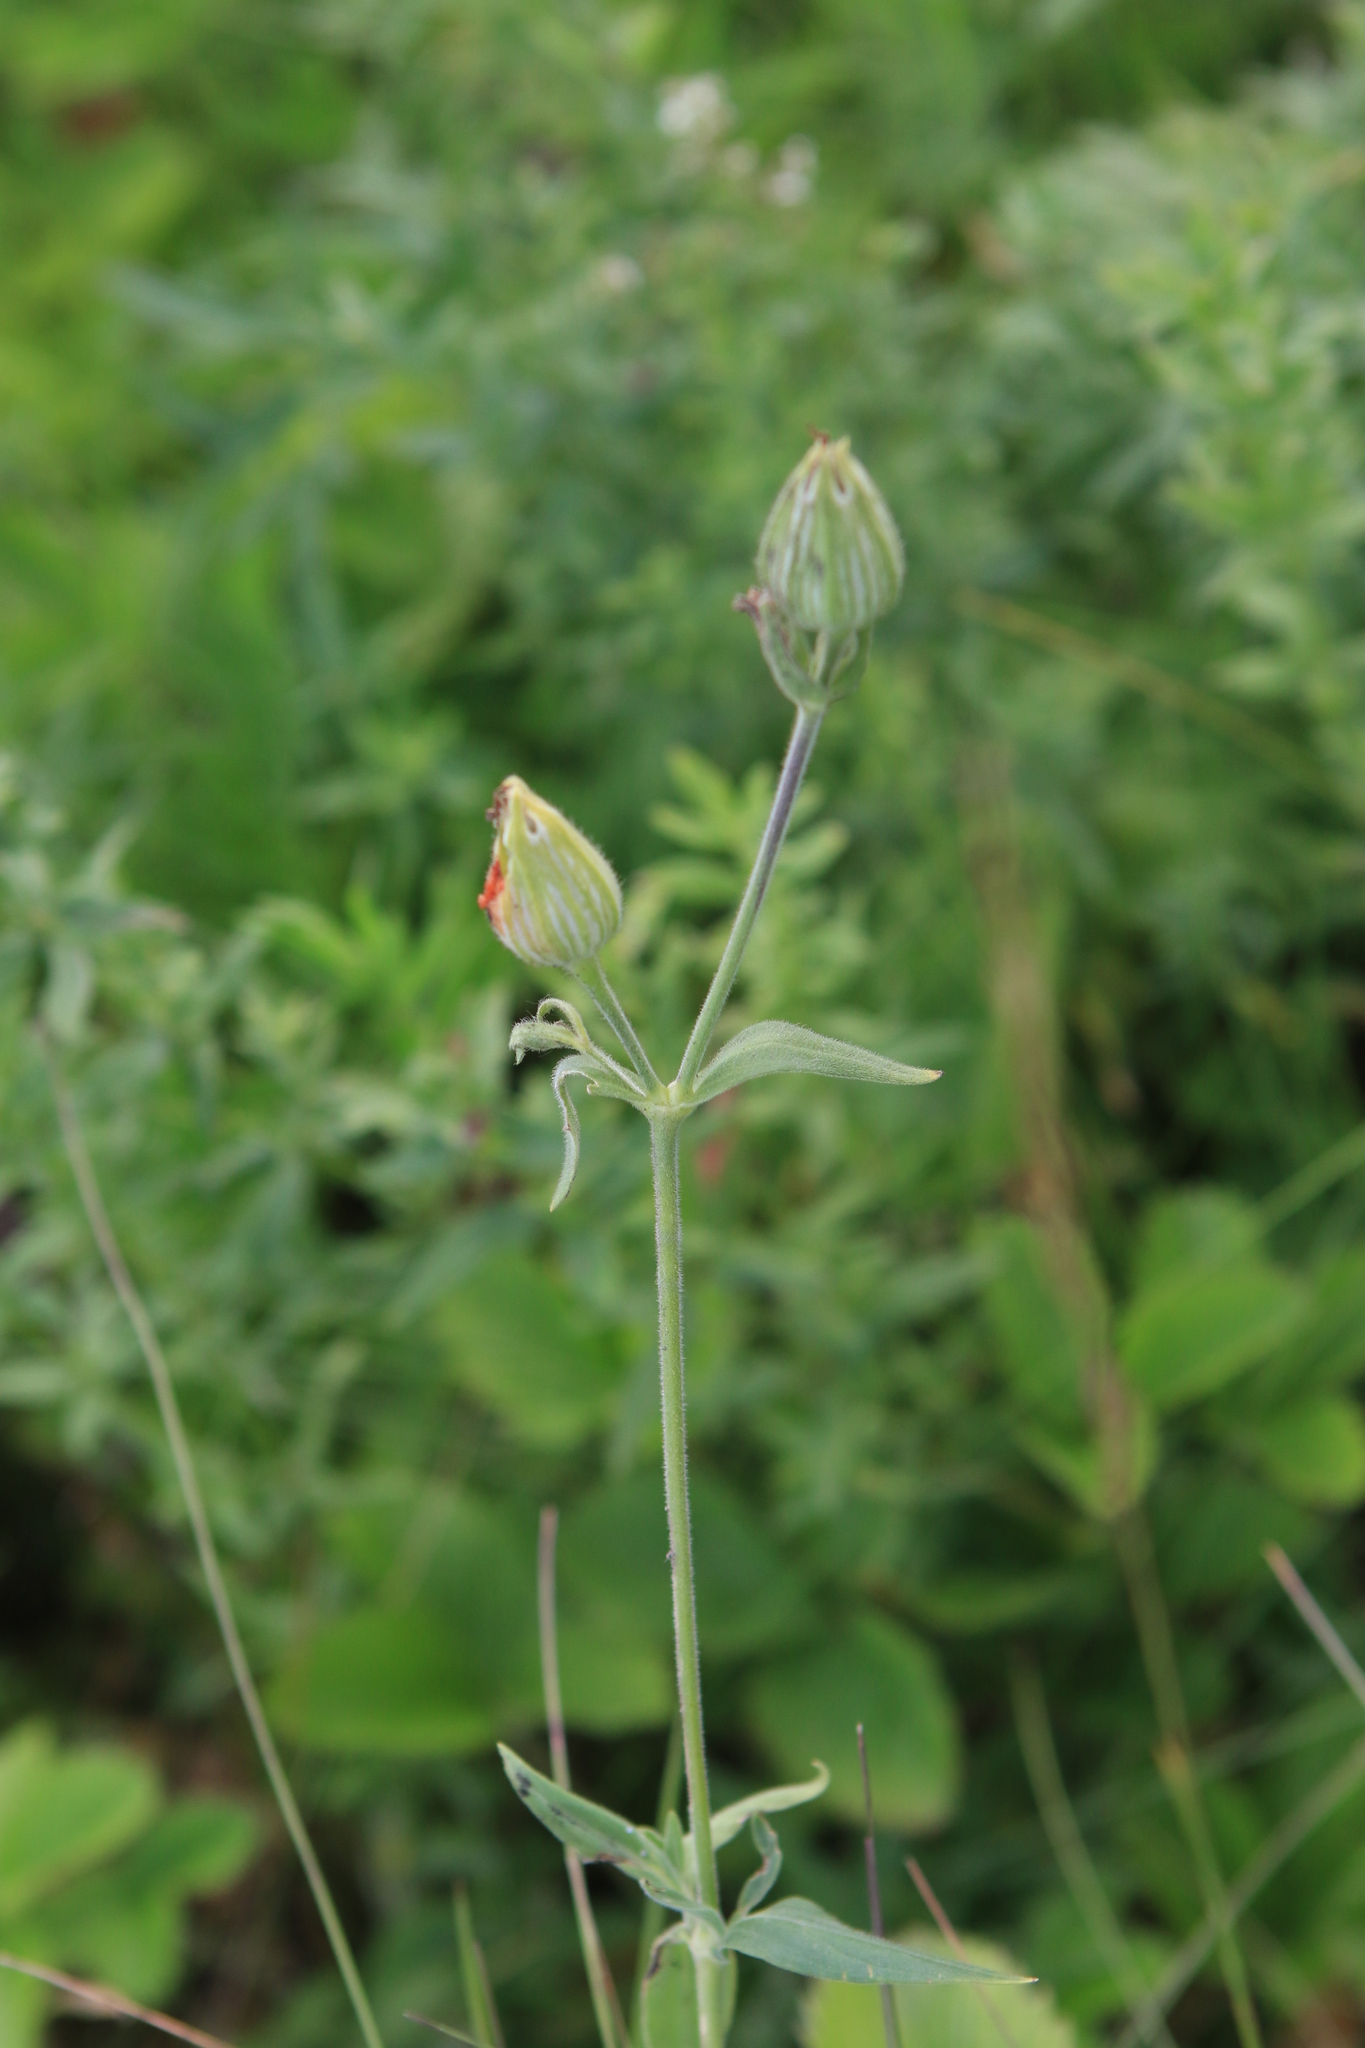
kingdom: Plantae
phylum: Tracheophyta
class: Magnoliopsida
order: Caryophyllales
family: Caryophyllaceae
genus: Silene
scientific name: Silene latifolia
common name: White campion
